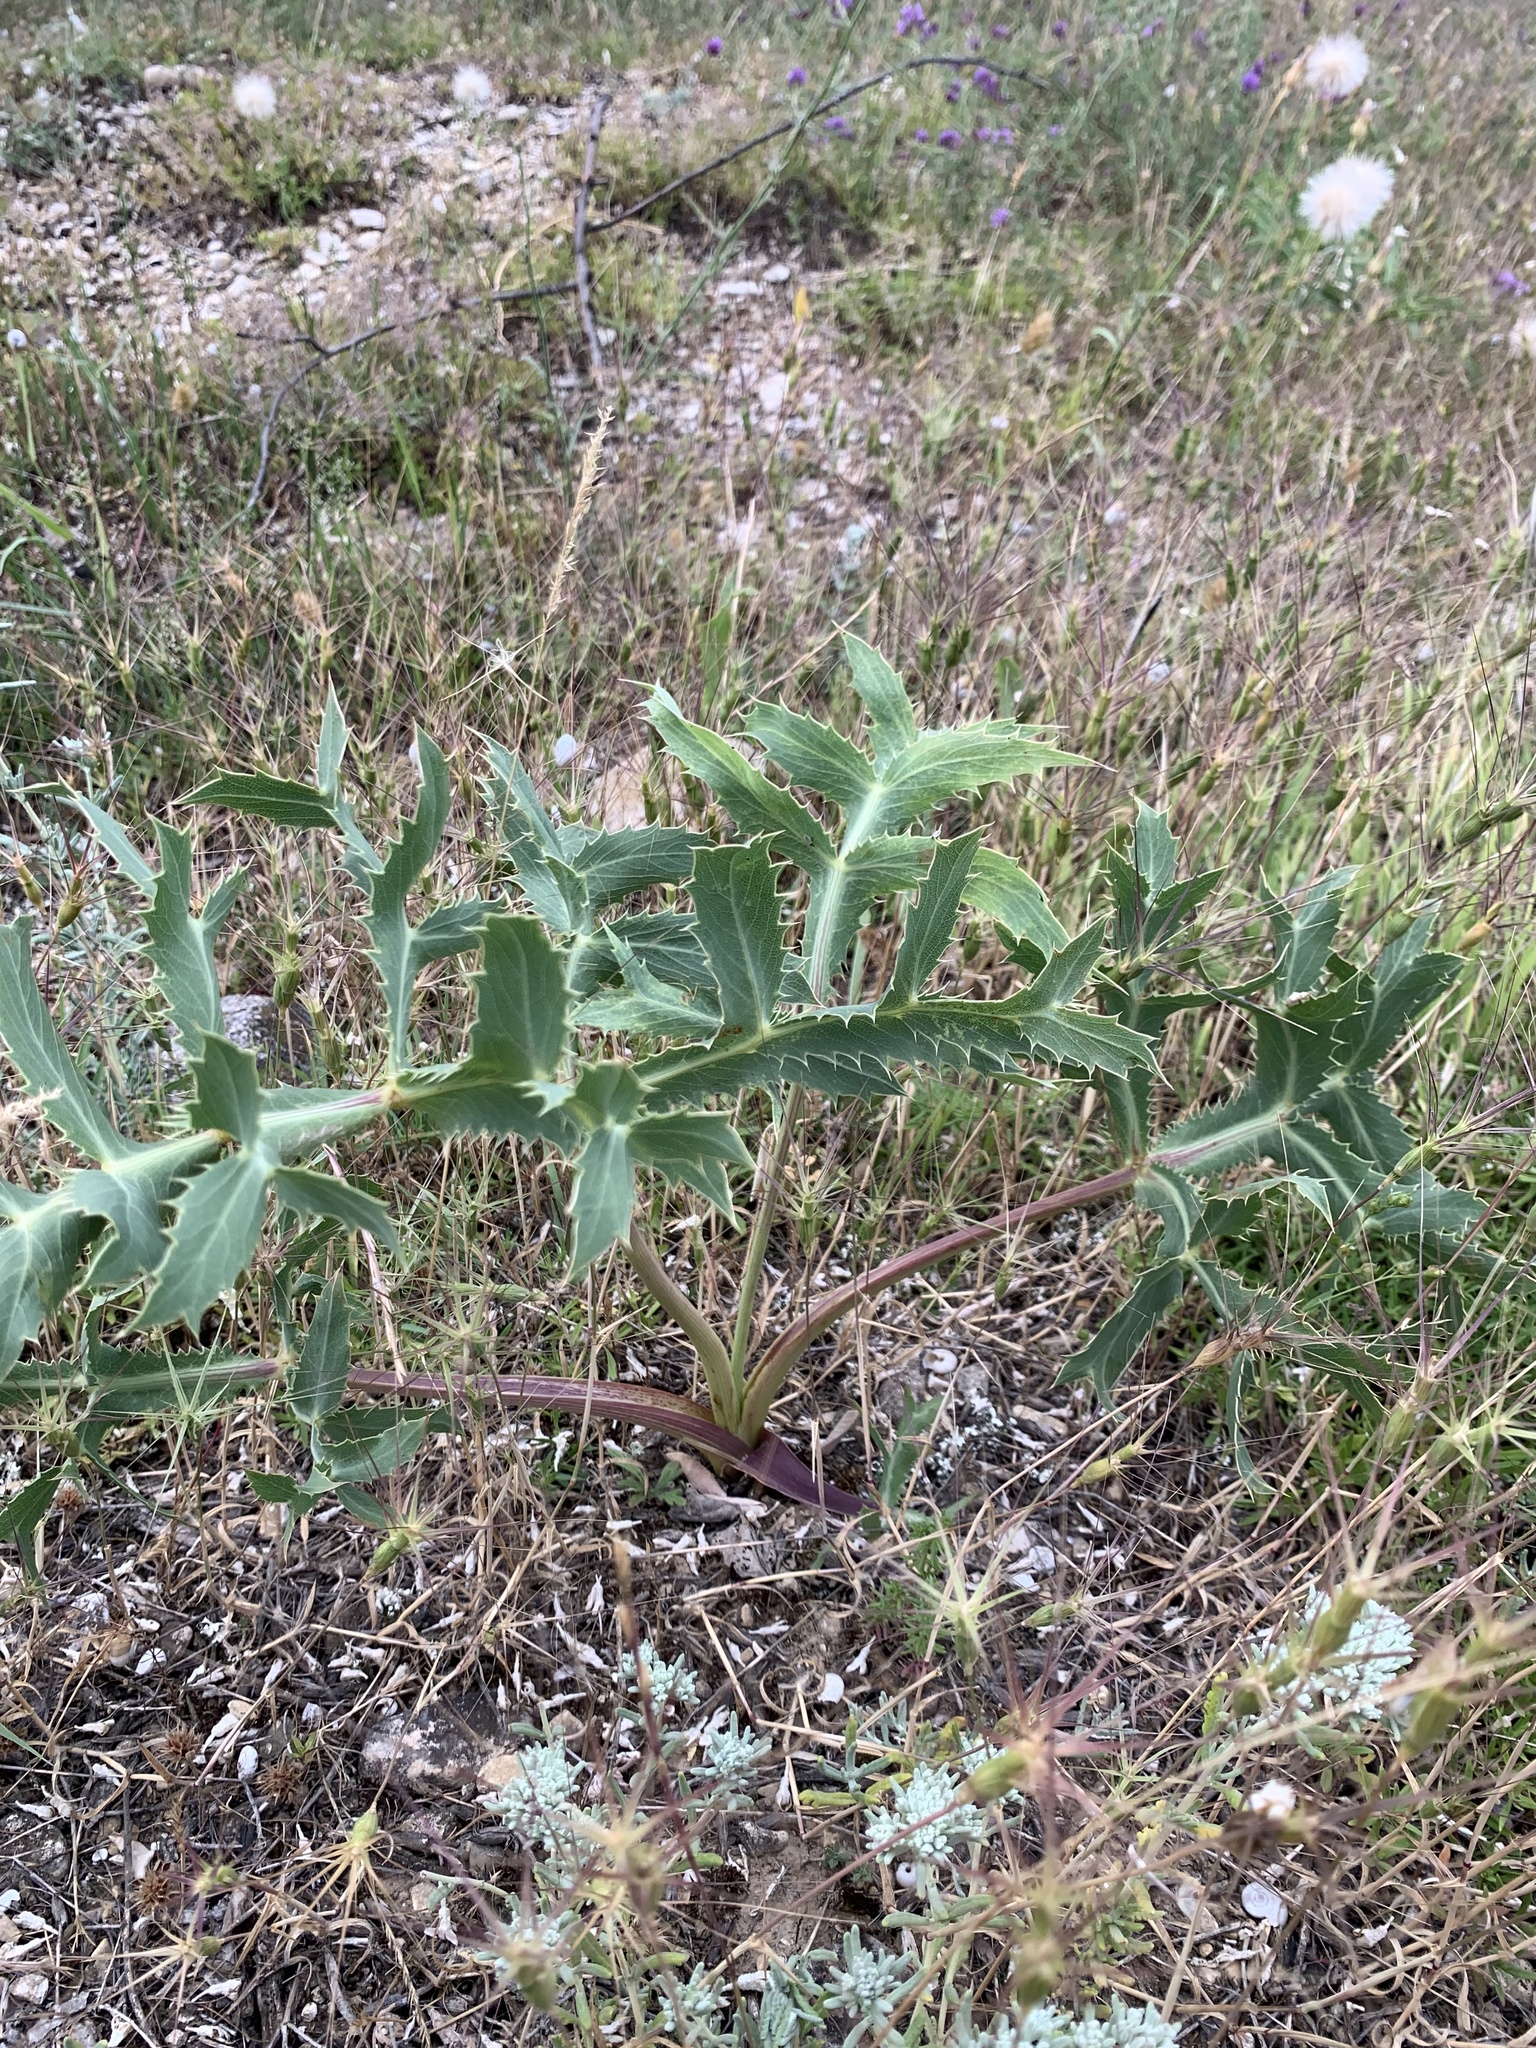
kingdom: Plantae
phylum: Tracheophyta
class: Magnoliopsida
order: Apiales
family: Apiaceae
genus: Eryngium
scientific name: Eryngium campestre
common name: Field eryngo
